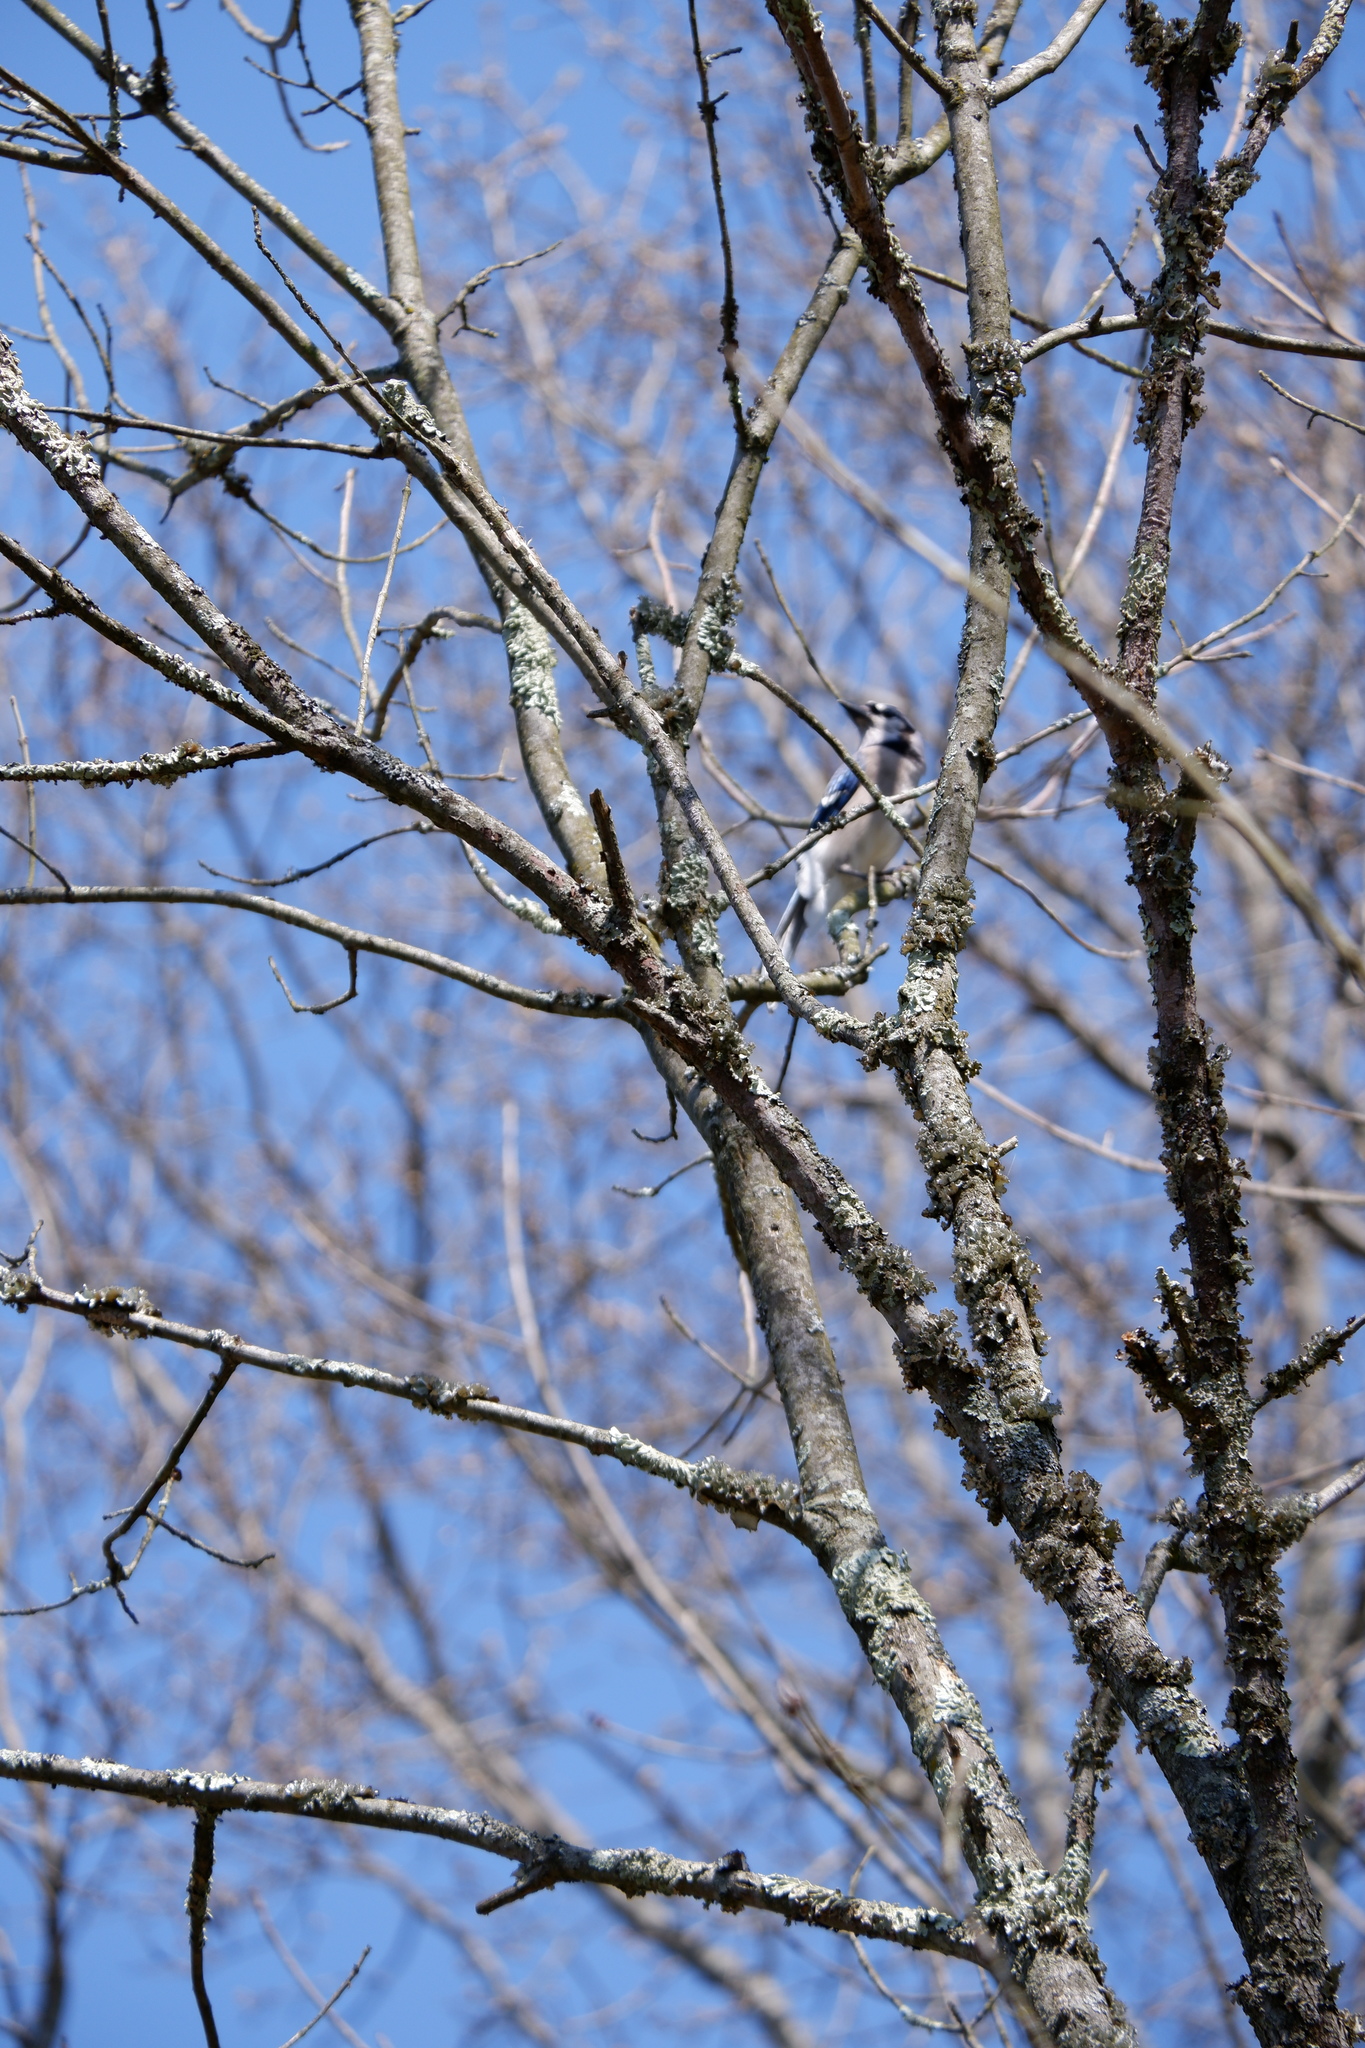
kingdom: Animalia
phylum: Chordata
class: Aves
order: Passeriformes
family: Corvidae
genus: Cyanocitta
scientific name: Cyanocitta cristata
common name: Blue jay
